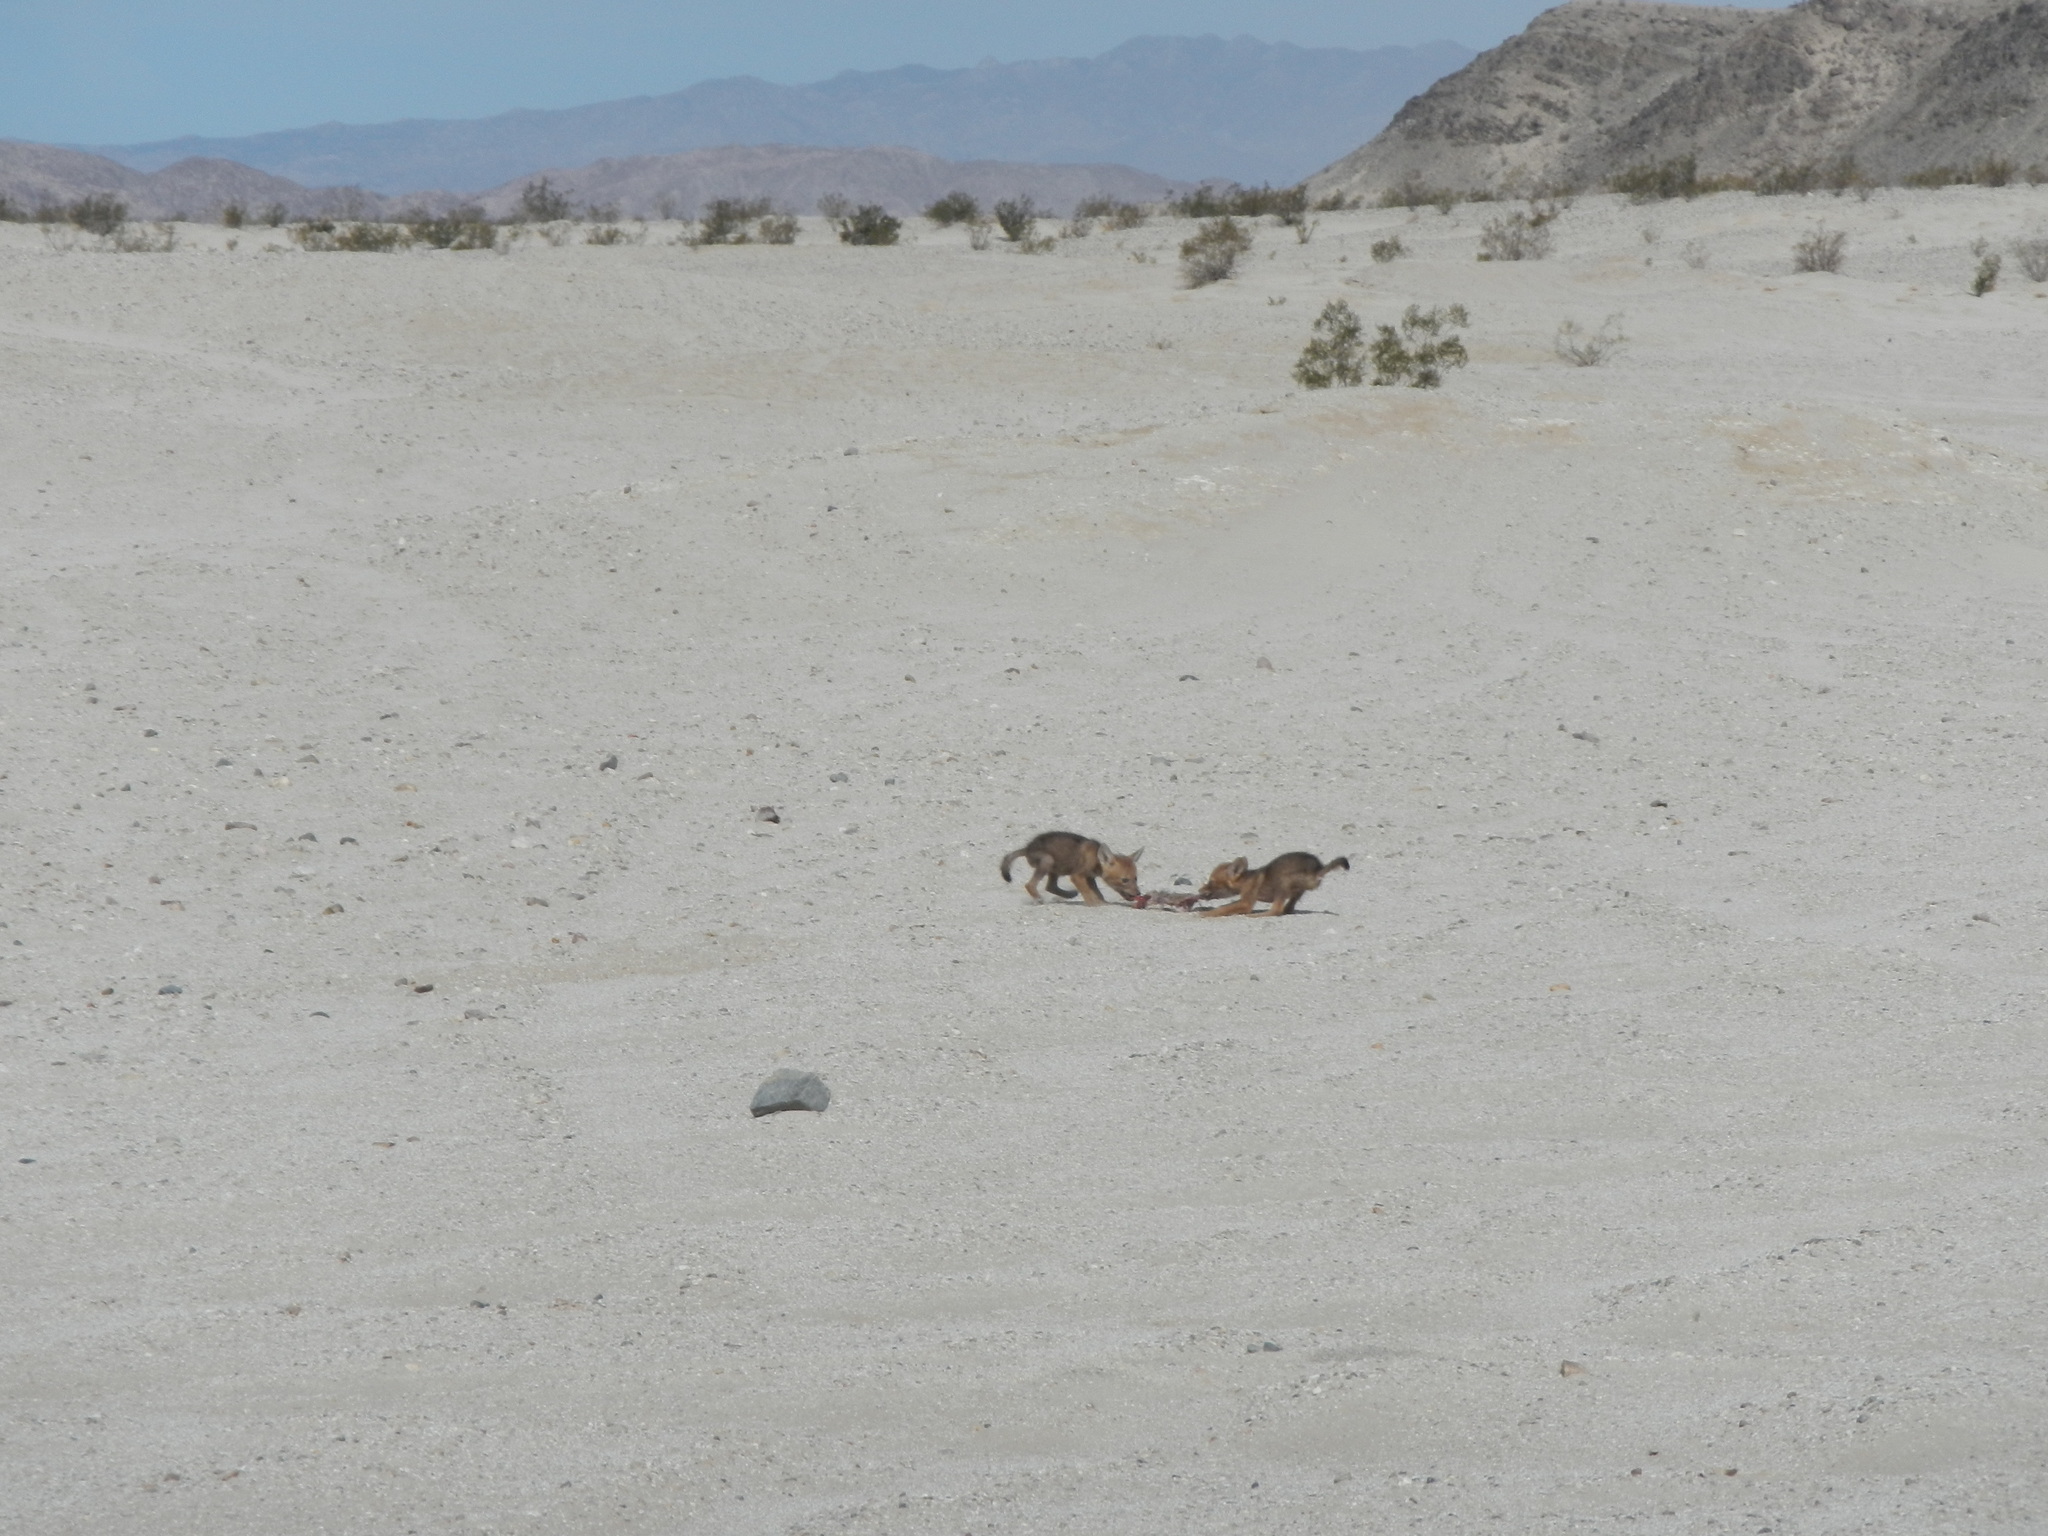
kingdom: Animalia
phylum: Chordata
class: Mammalia
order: Carnivora
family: Canidae
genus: Canis
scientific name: Canis latrans
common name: Coyote
